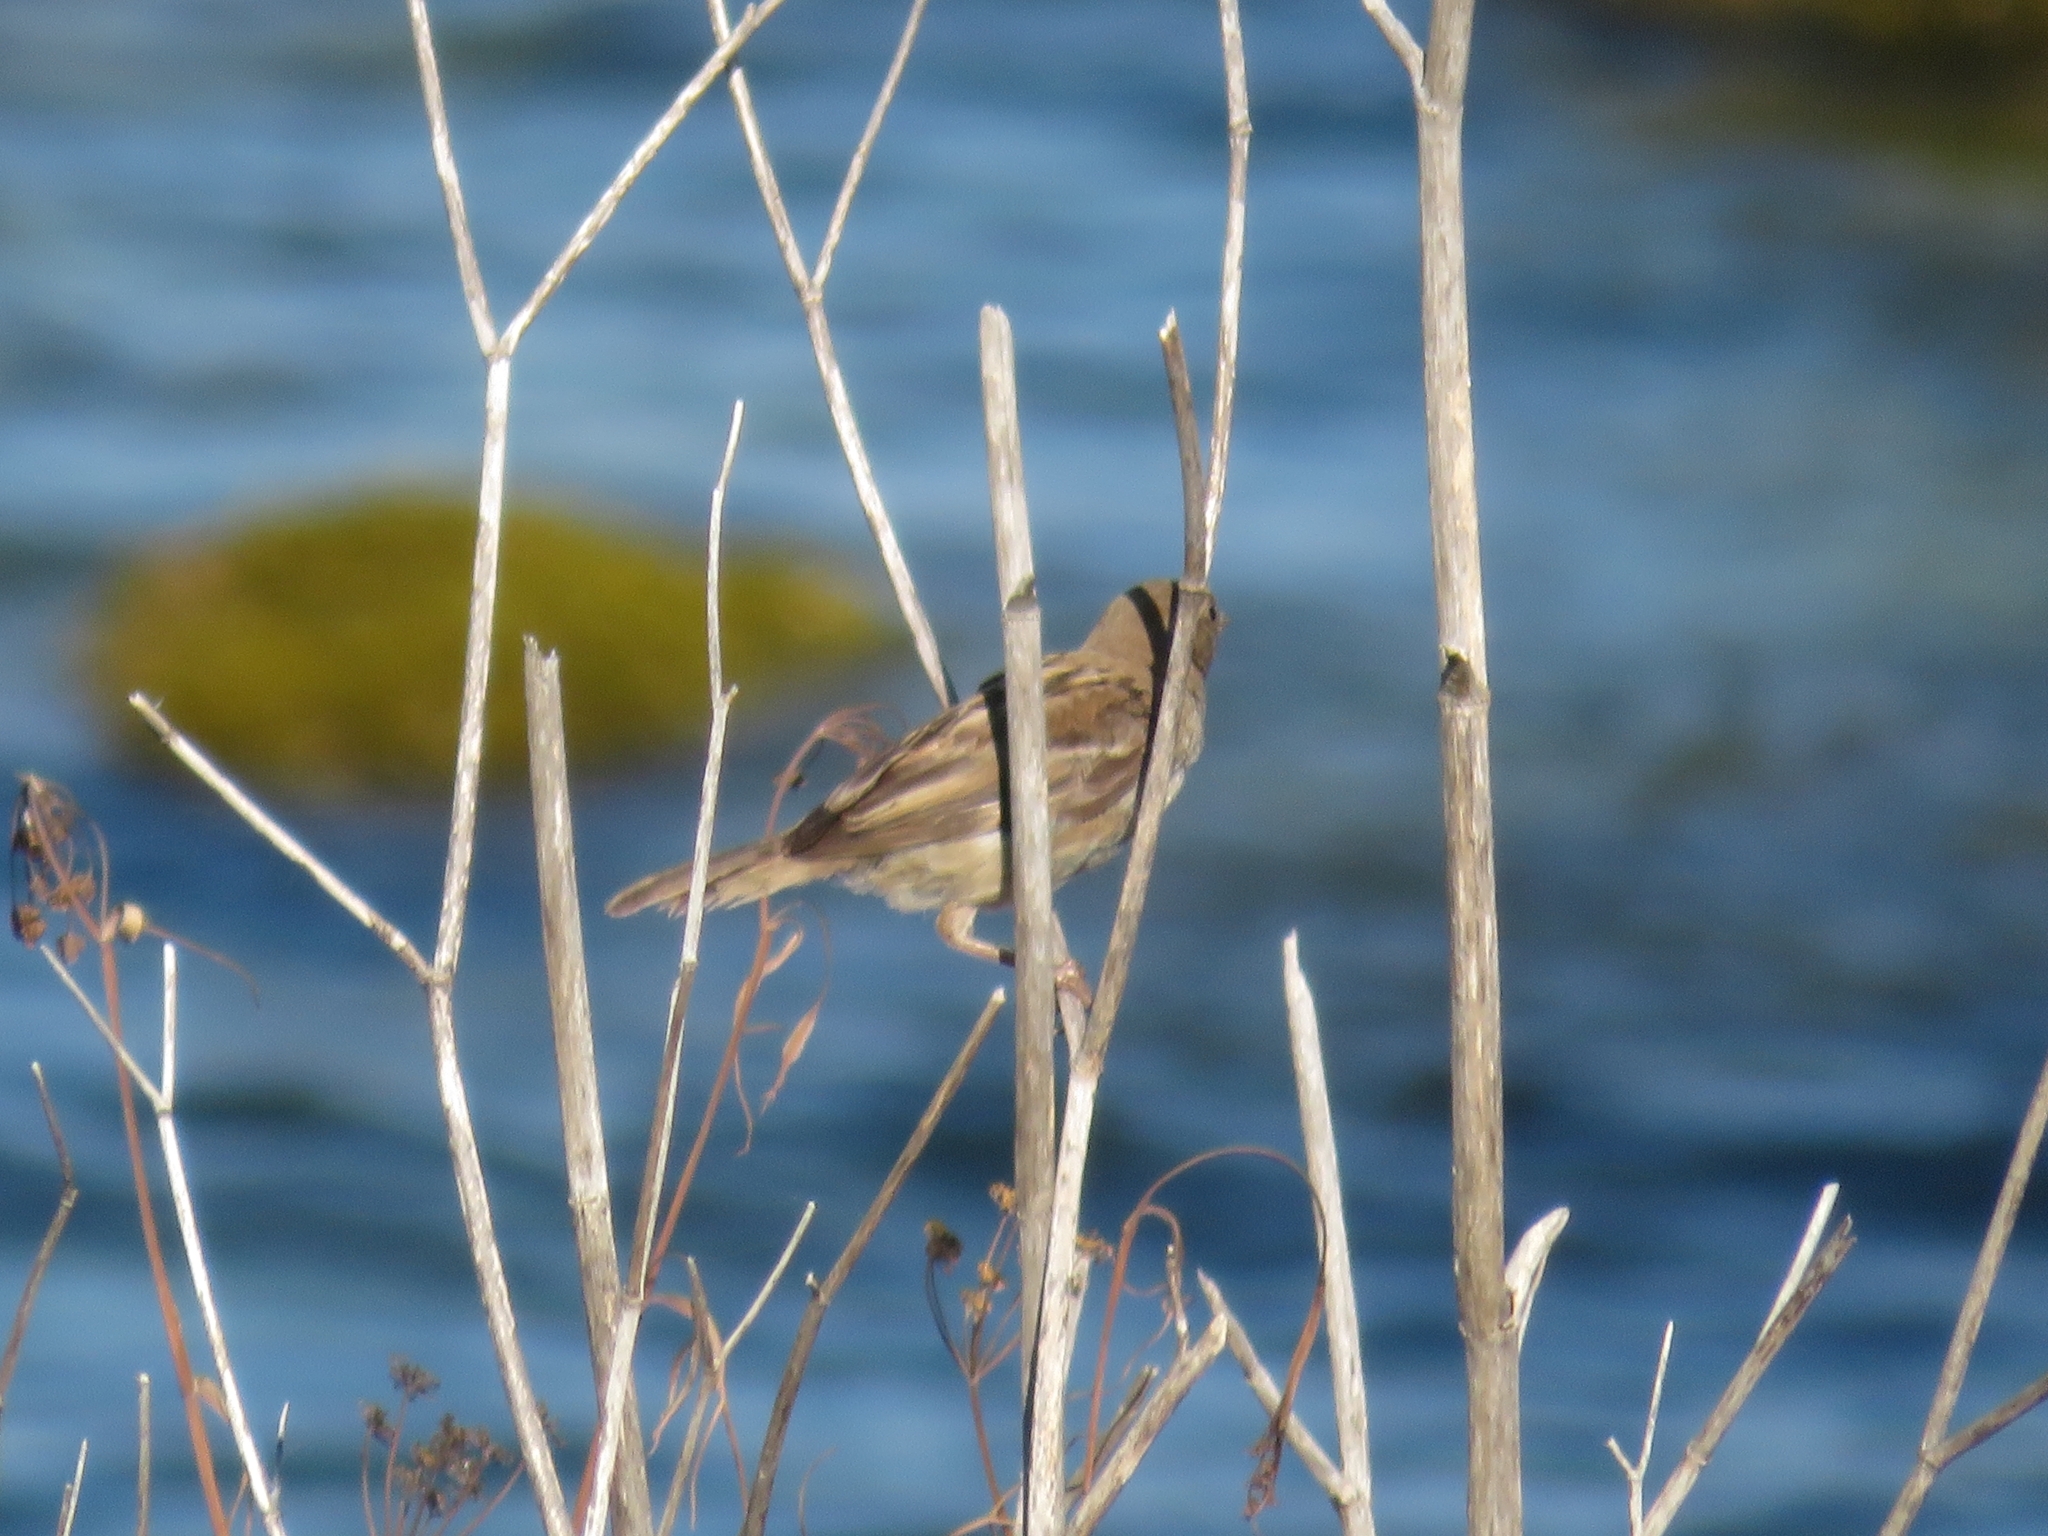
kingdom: Animalia
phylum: Chordata
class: Aves
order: Passeriformes
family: Passeridae
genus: Passer
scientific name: Passer domesticus
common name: House sparrow
